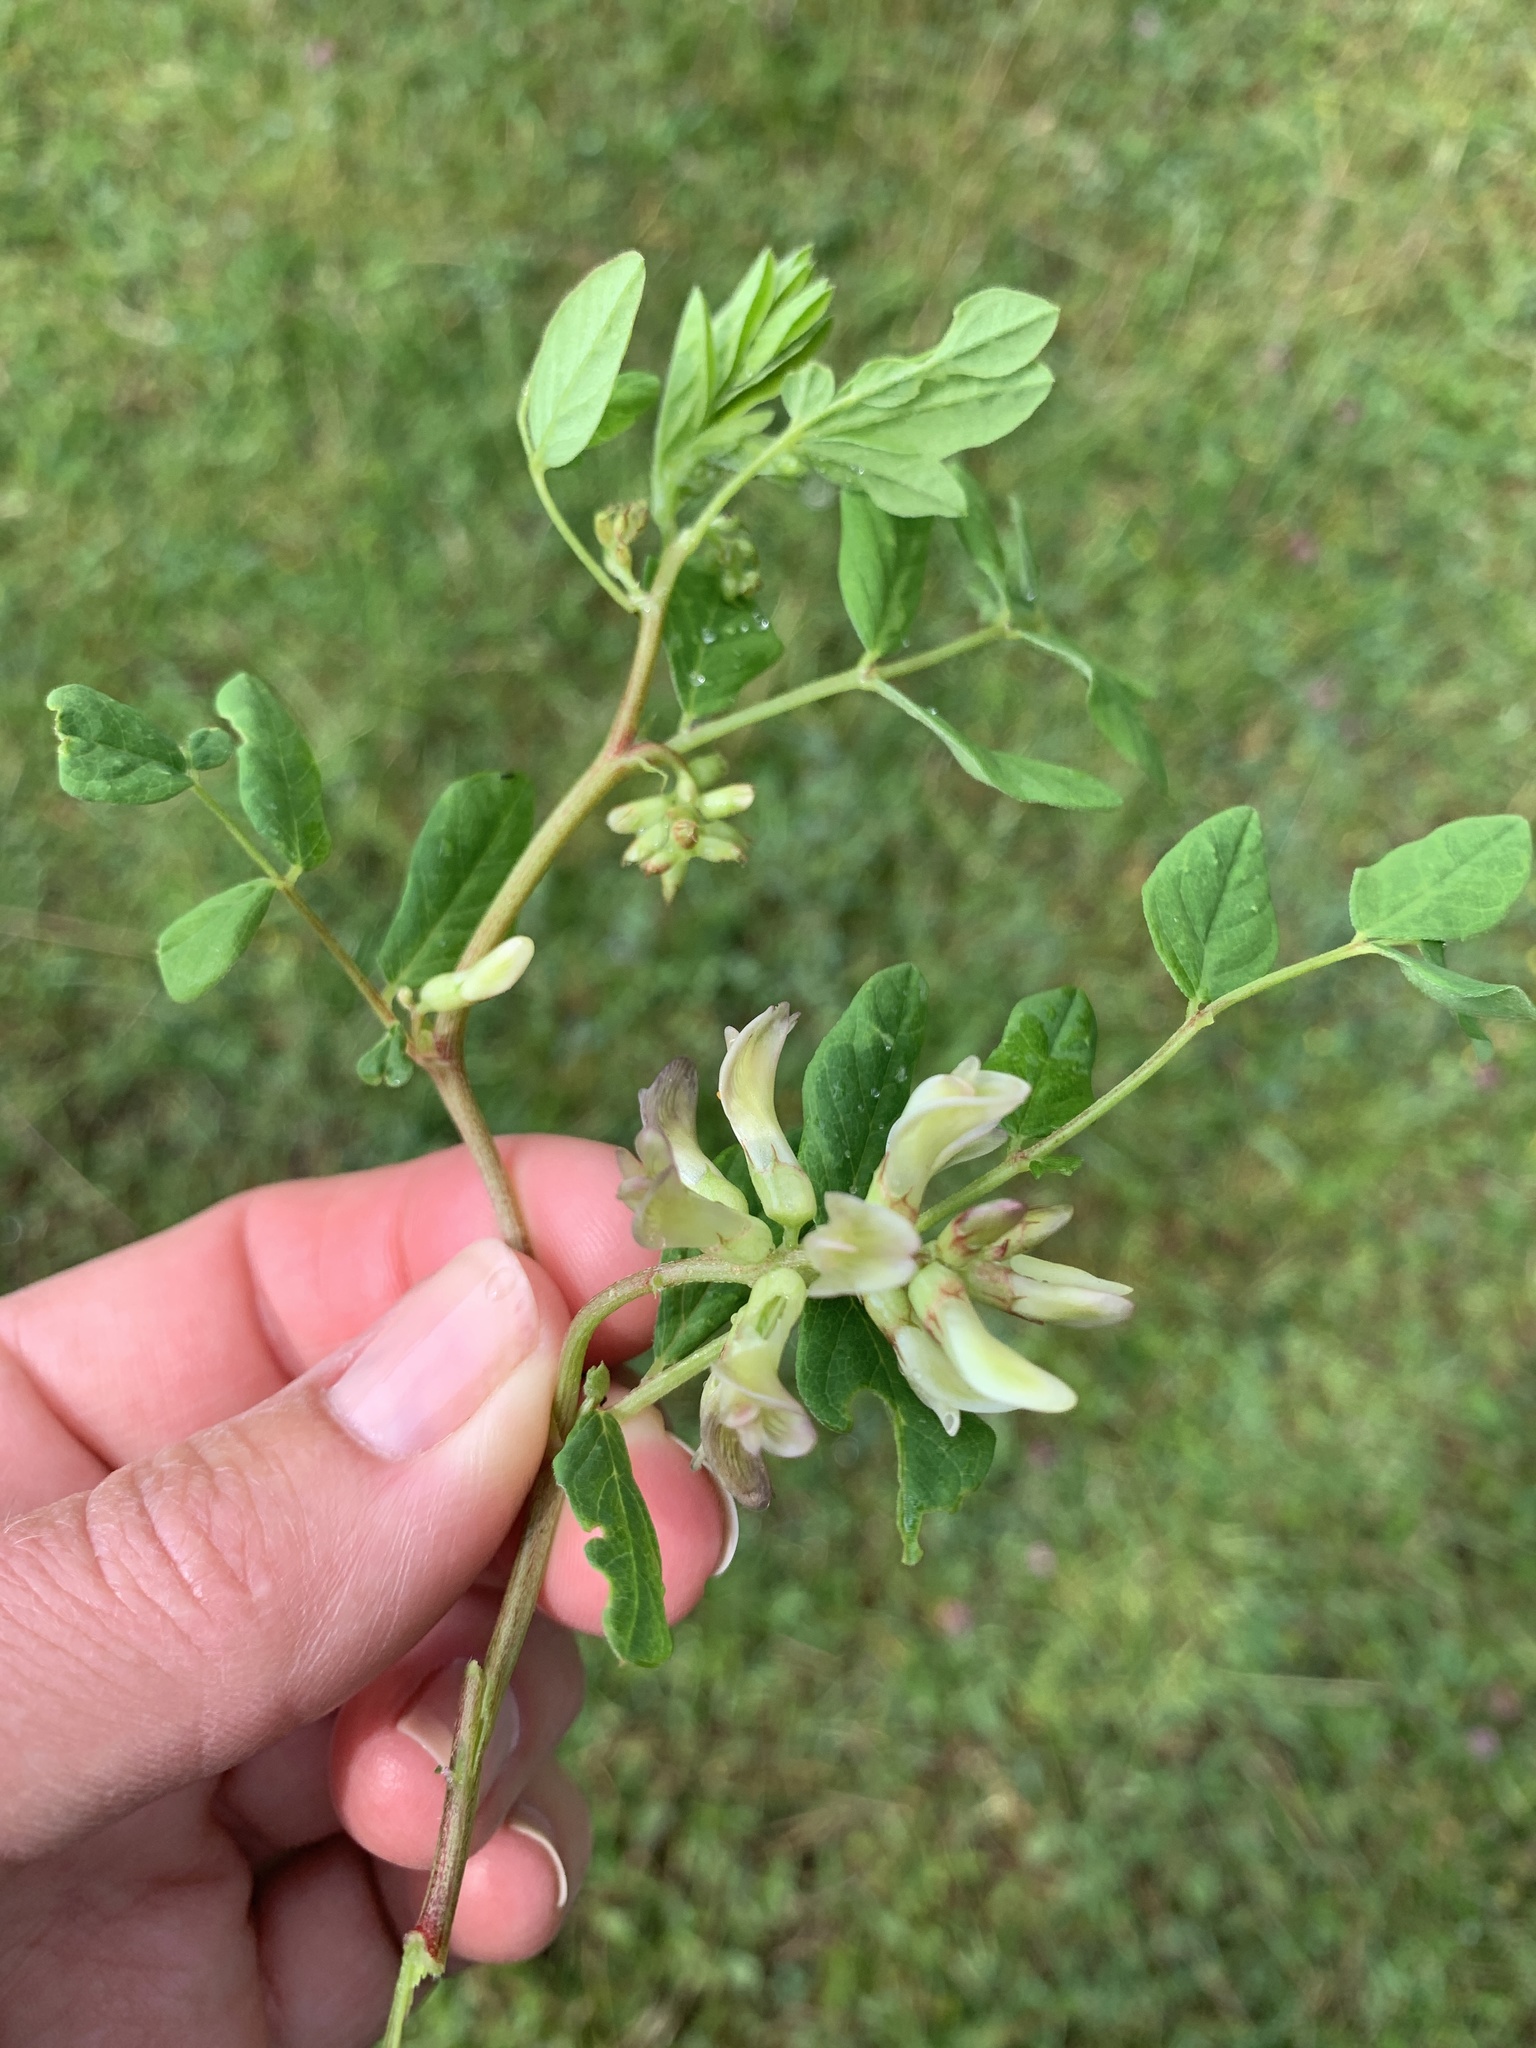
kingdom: Plantae
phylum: Tracheophyta
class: Magnoliopsida
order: Fabales
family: Fabaceae
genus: Astragalus
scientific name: Astragalus glycyphyllos
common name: Wild liquorice
